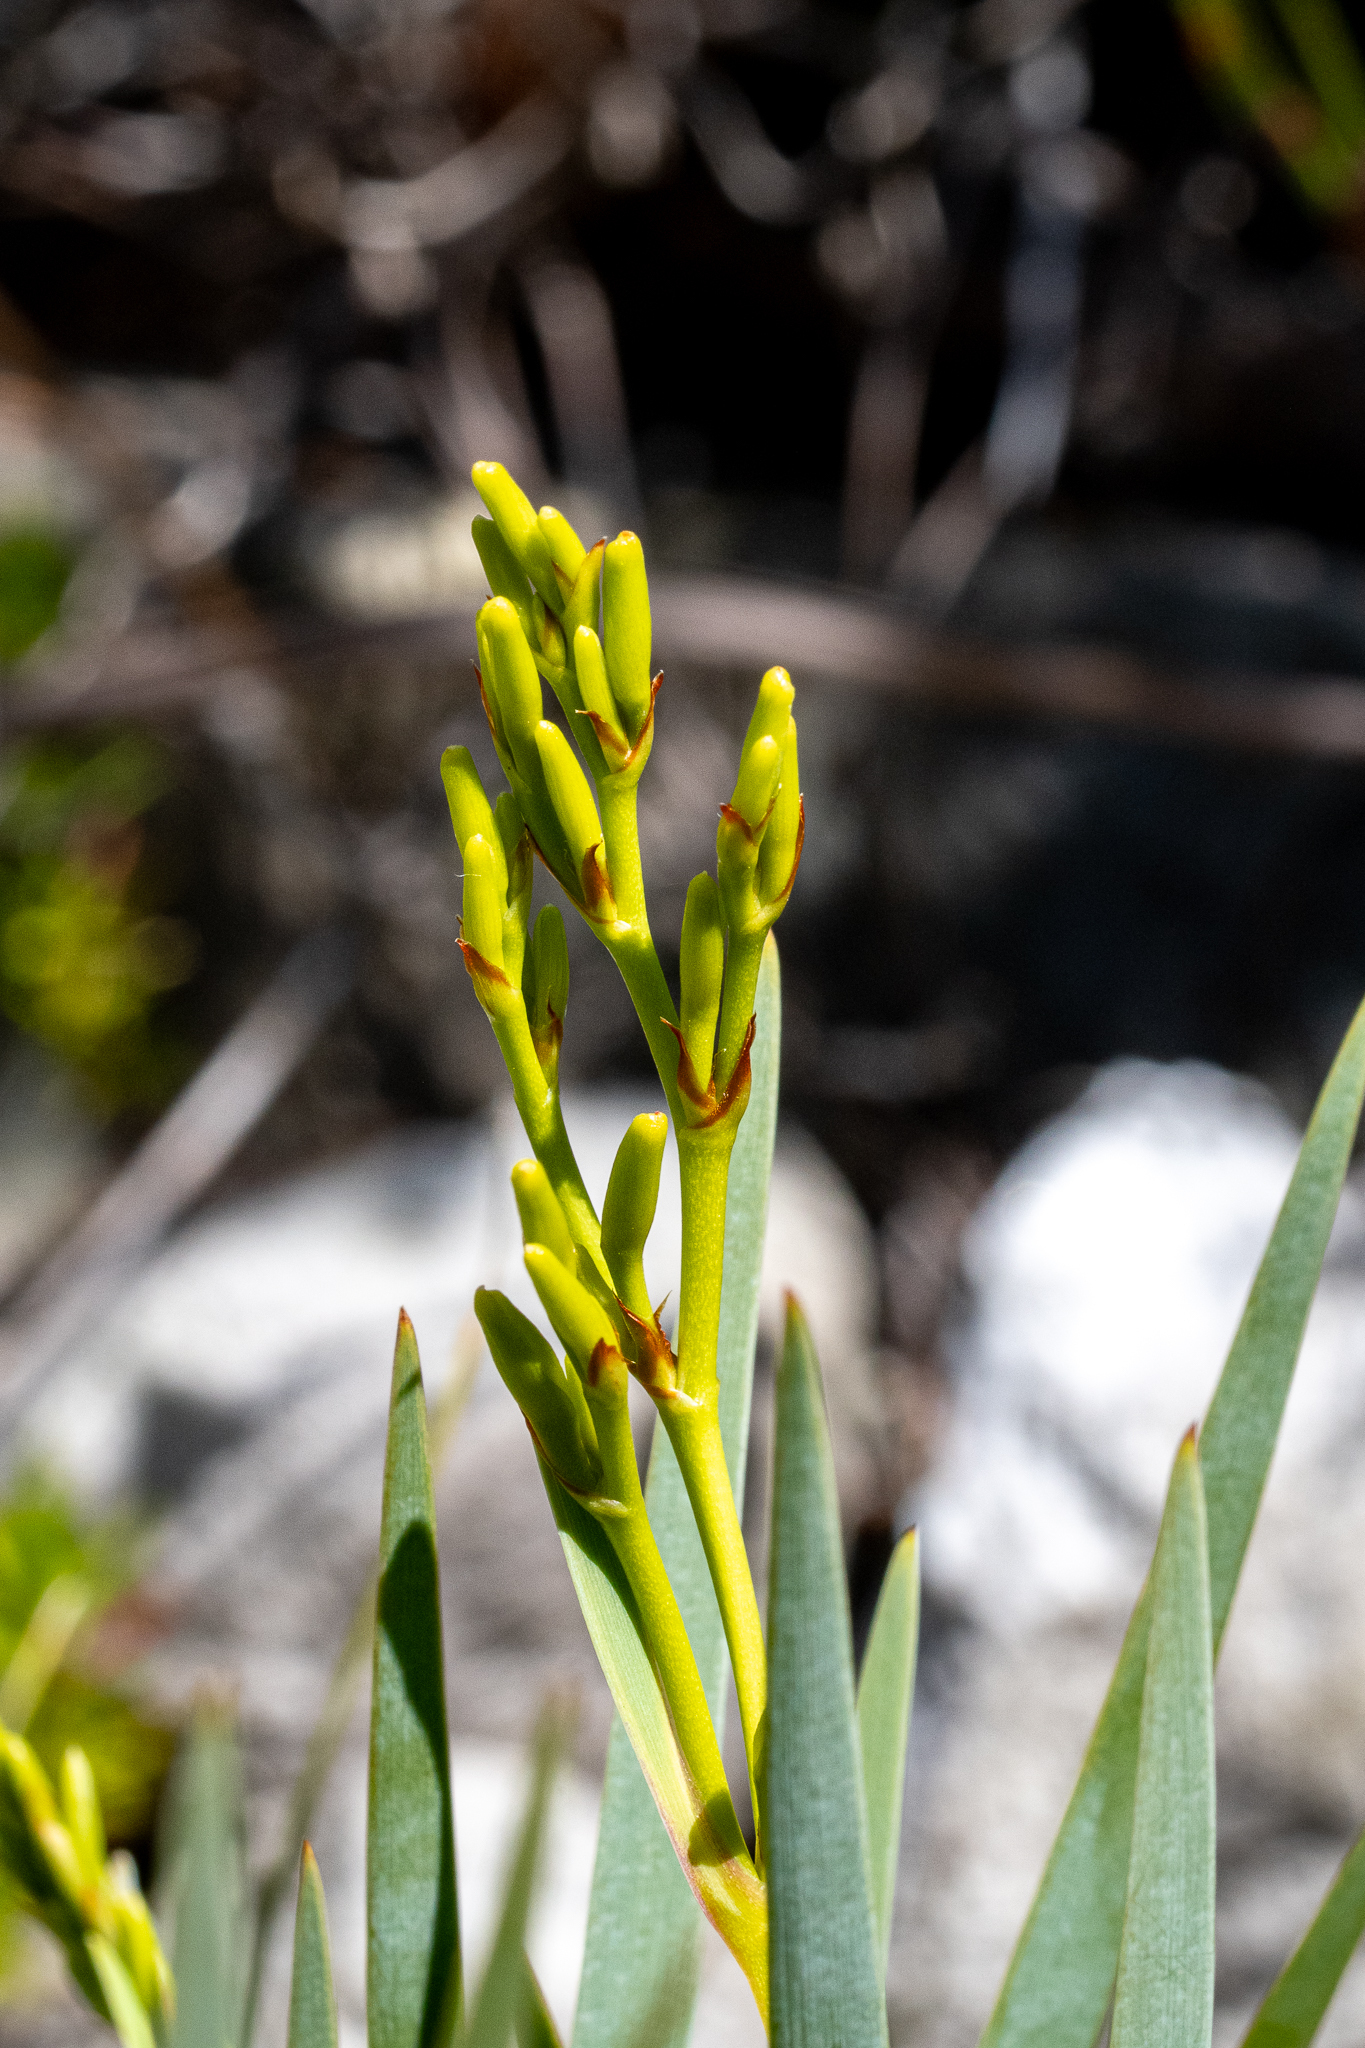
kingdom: Plantae
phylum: Tracheophyta
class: Liliopsida
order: Asparagales
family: Iridaceae
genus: Nivenia
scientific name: Nivenia stokoei
